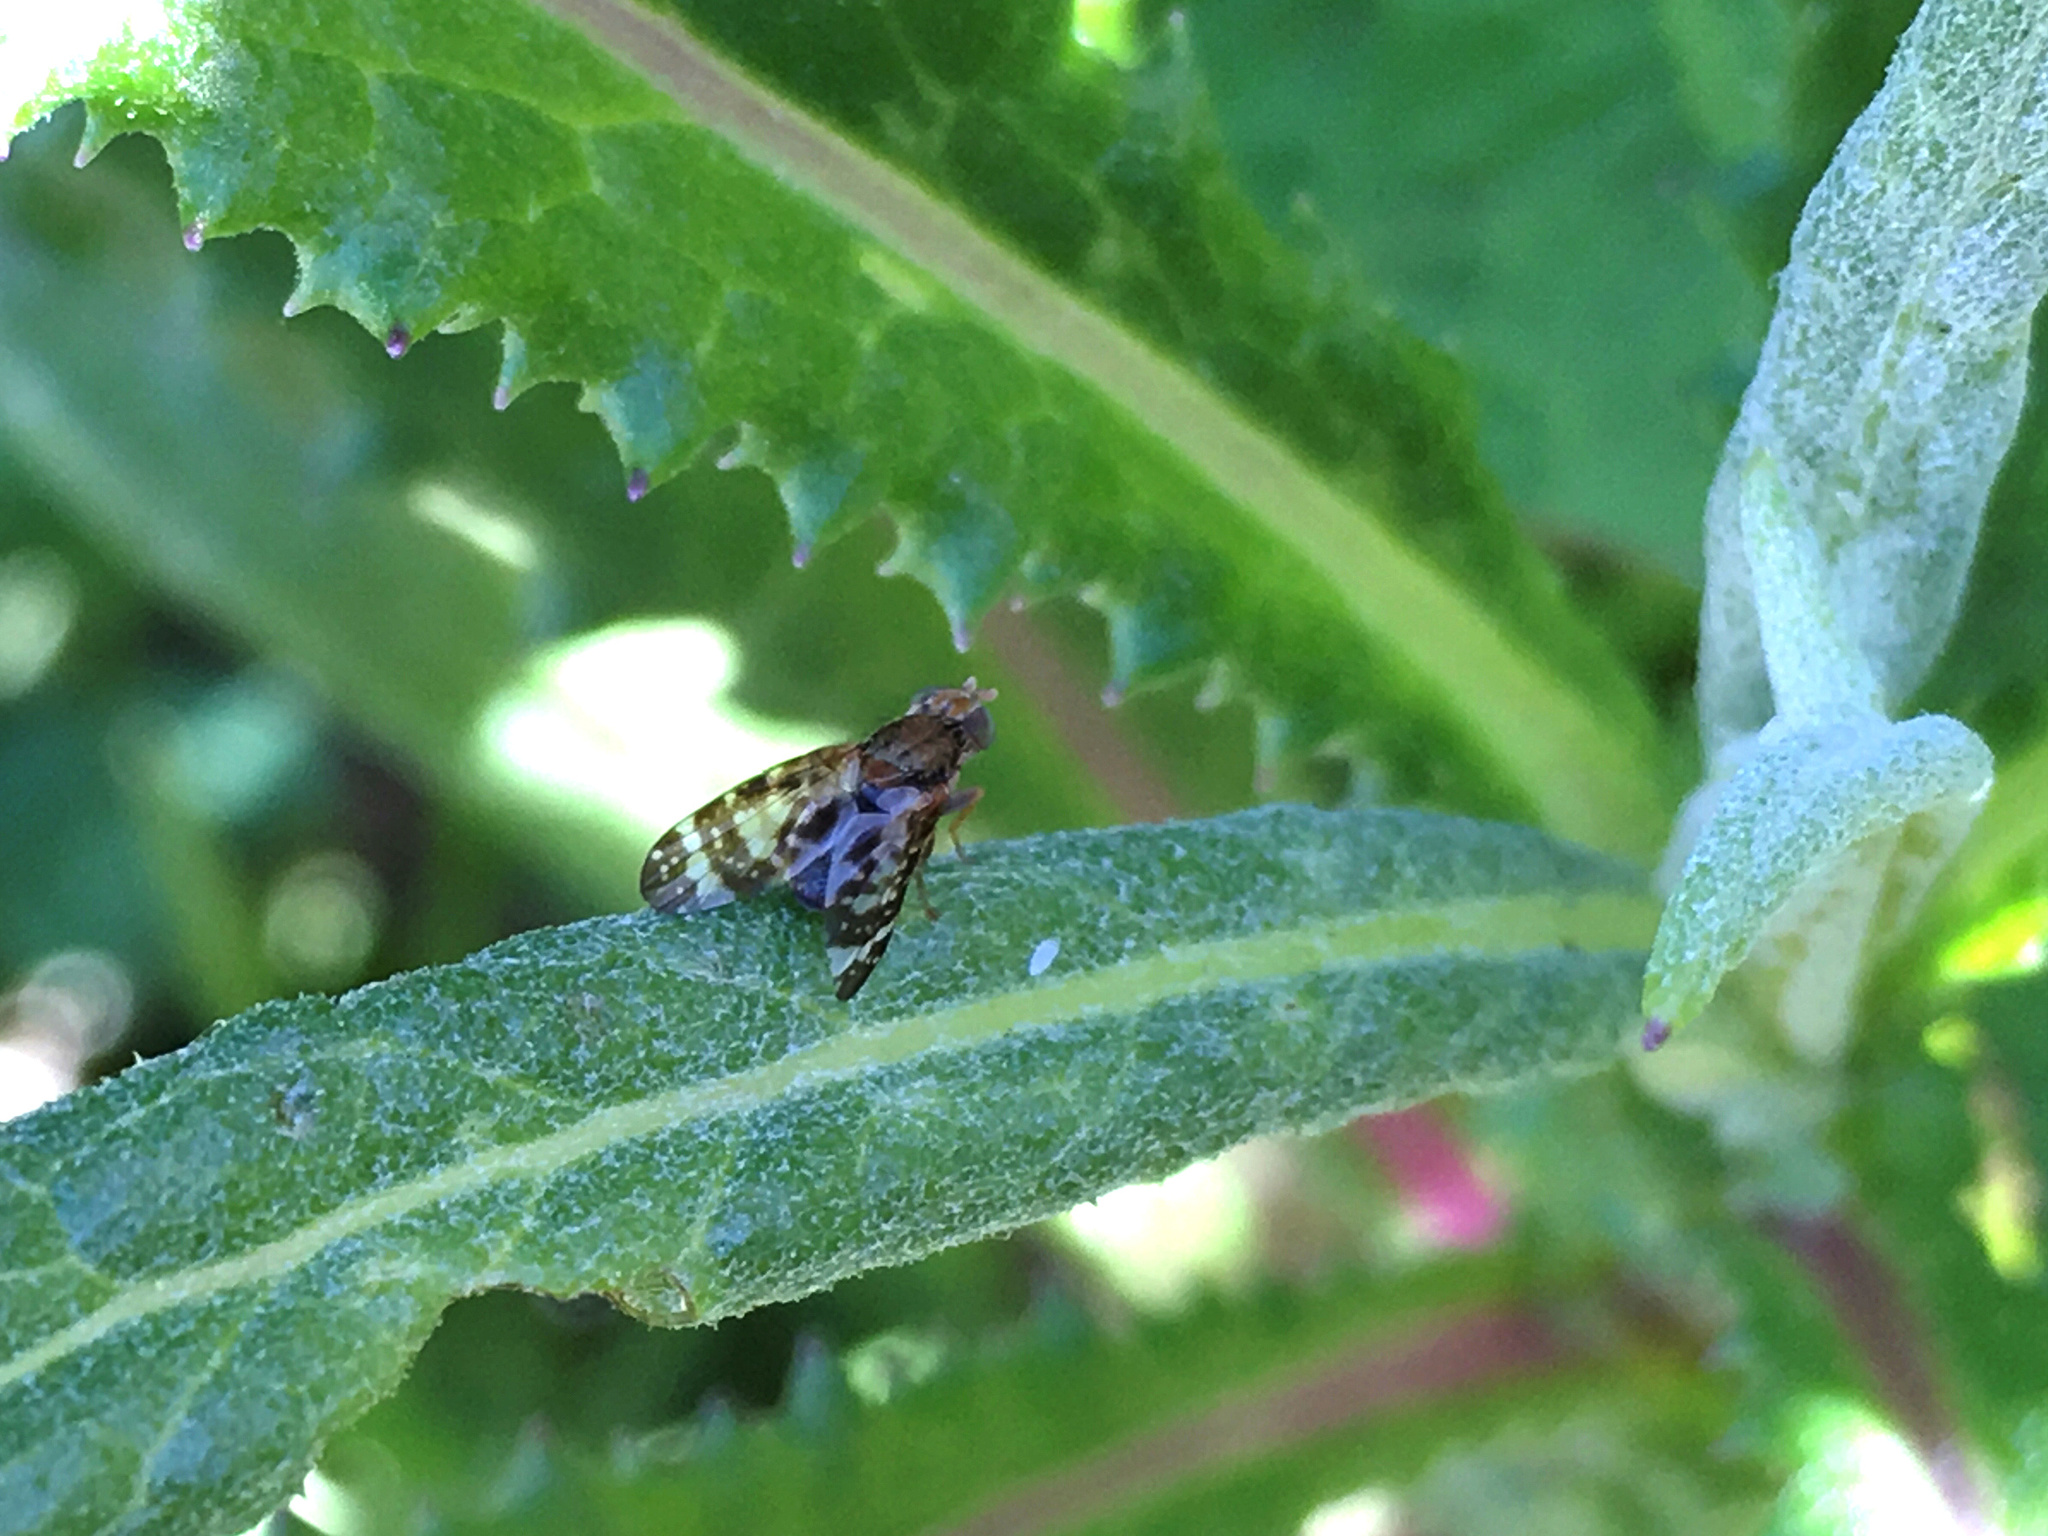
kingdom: Animalia
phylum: Arthropoda
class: Insecta
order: Diptera
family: Tephritidae
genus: Sphenella
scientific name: Sphenella
